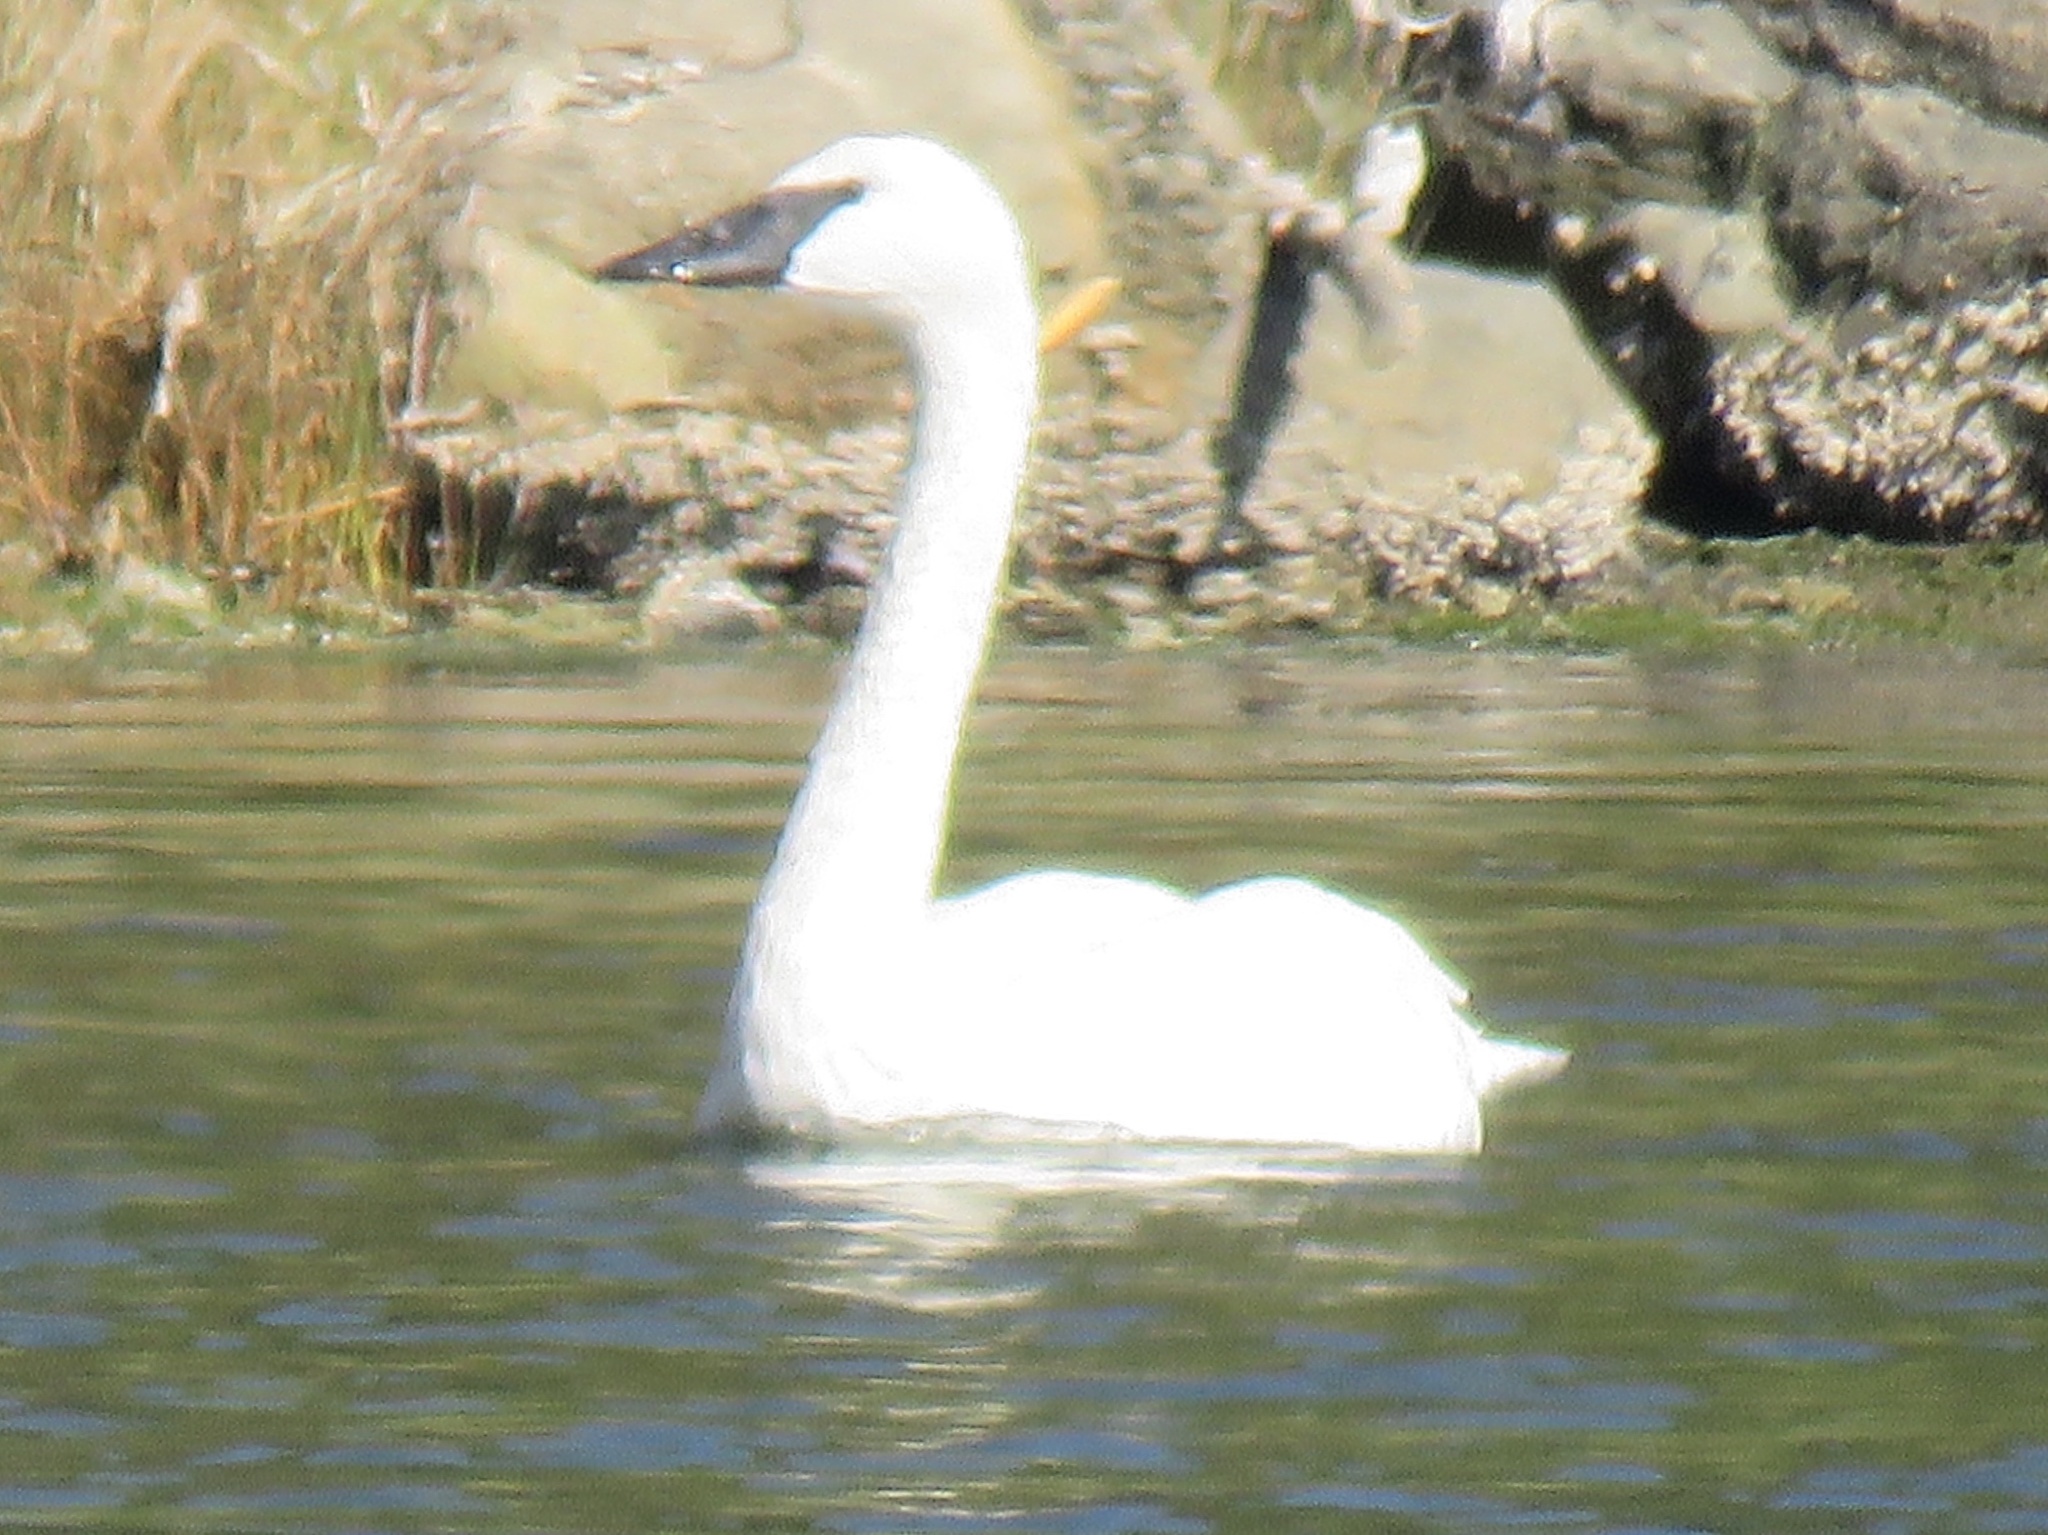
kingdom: Animalia
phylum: Chordata
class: Aves
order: Anseriformes
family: Anatidae
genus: Cygnus
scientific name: Cygnus buccinator
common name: Trumpeter swan
